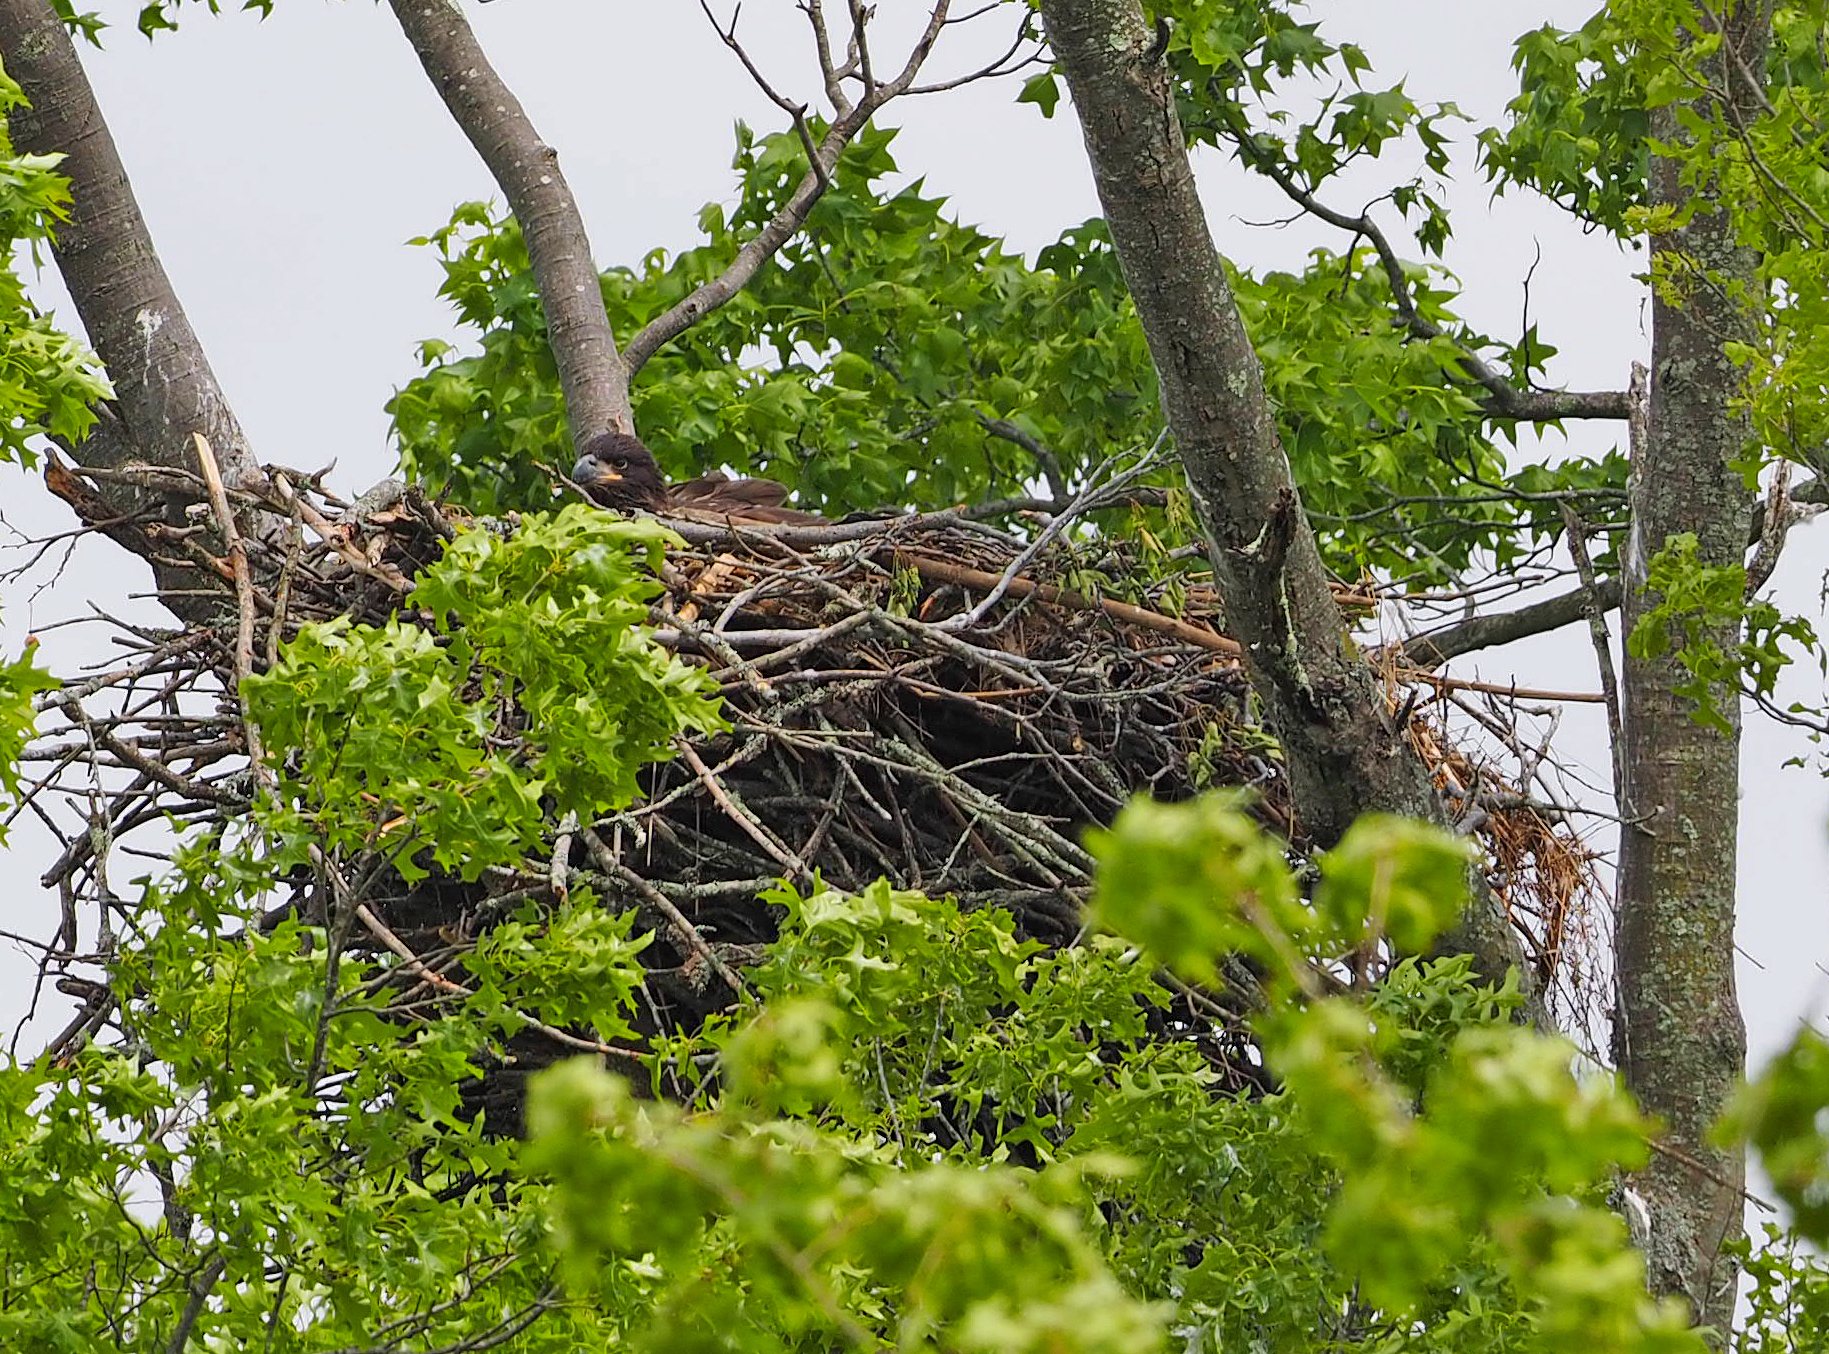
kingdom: Animalia
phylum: Chordata
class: Aves
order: Accipitriformes
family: Accipitridae
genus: Haliaeetus
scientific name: Haliaeetus leucocephalus
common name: Bald eagle
